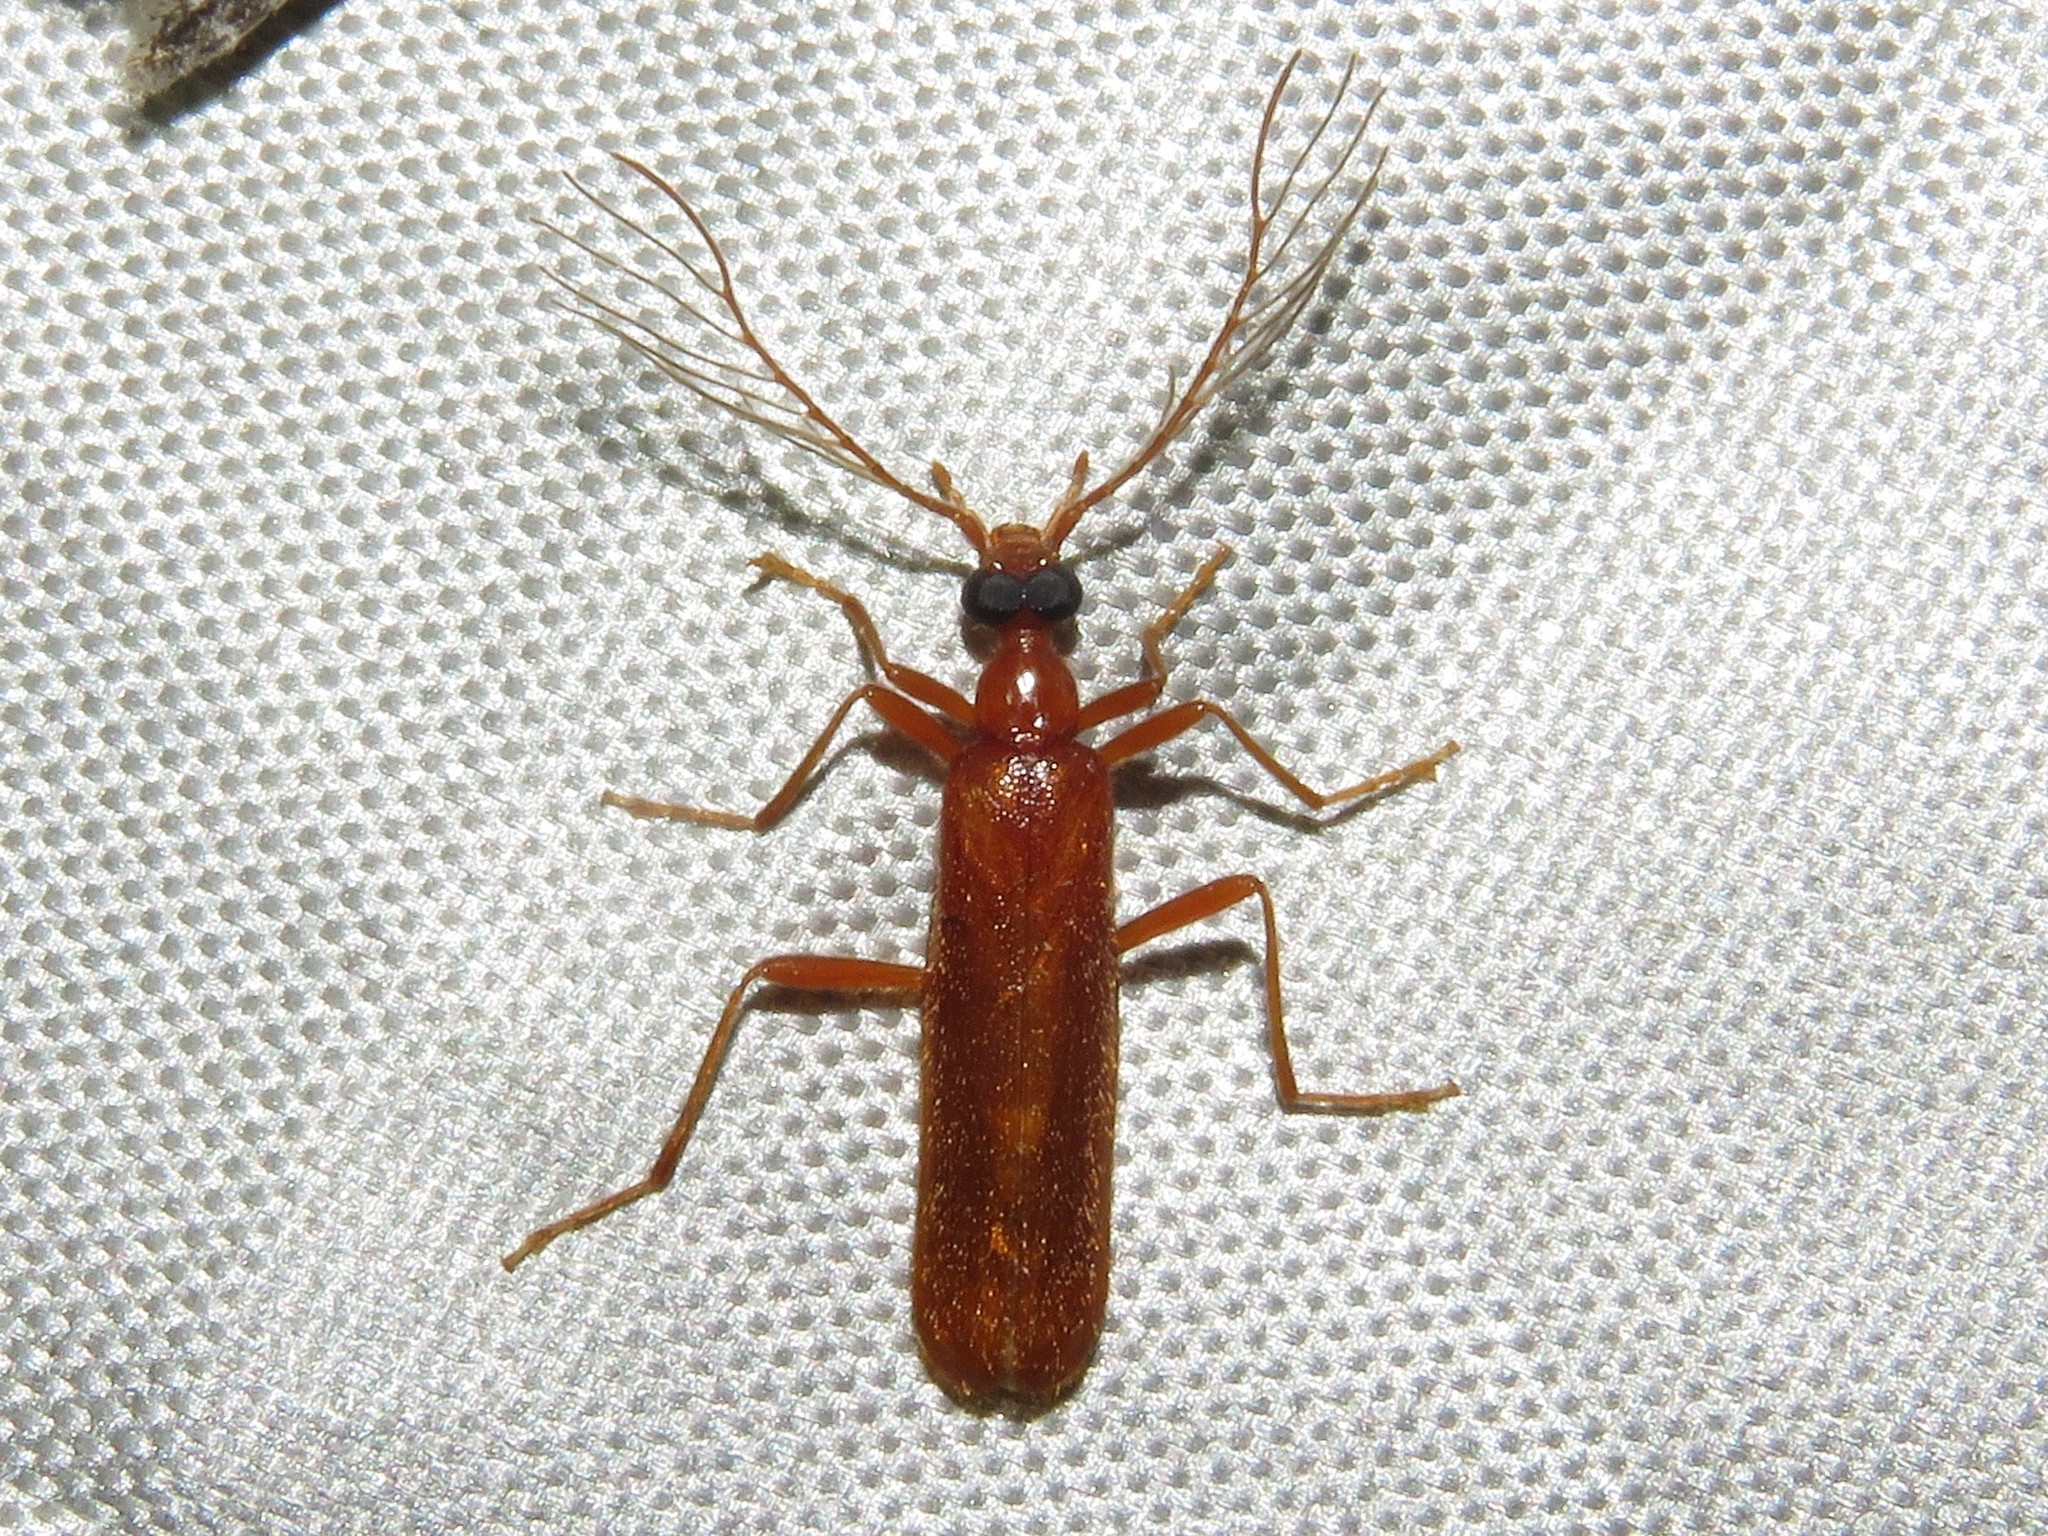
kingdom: Animalia
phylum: Arthropoda
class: Insecta
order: Coleoptera
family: Pyrochroidae
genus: Dendroides
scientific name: Dendroides concolor
